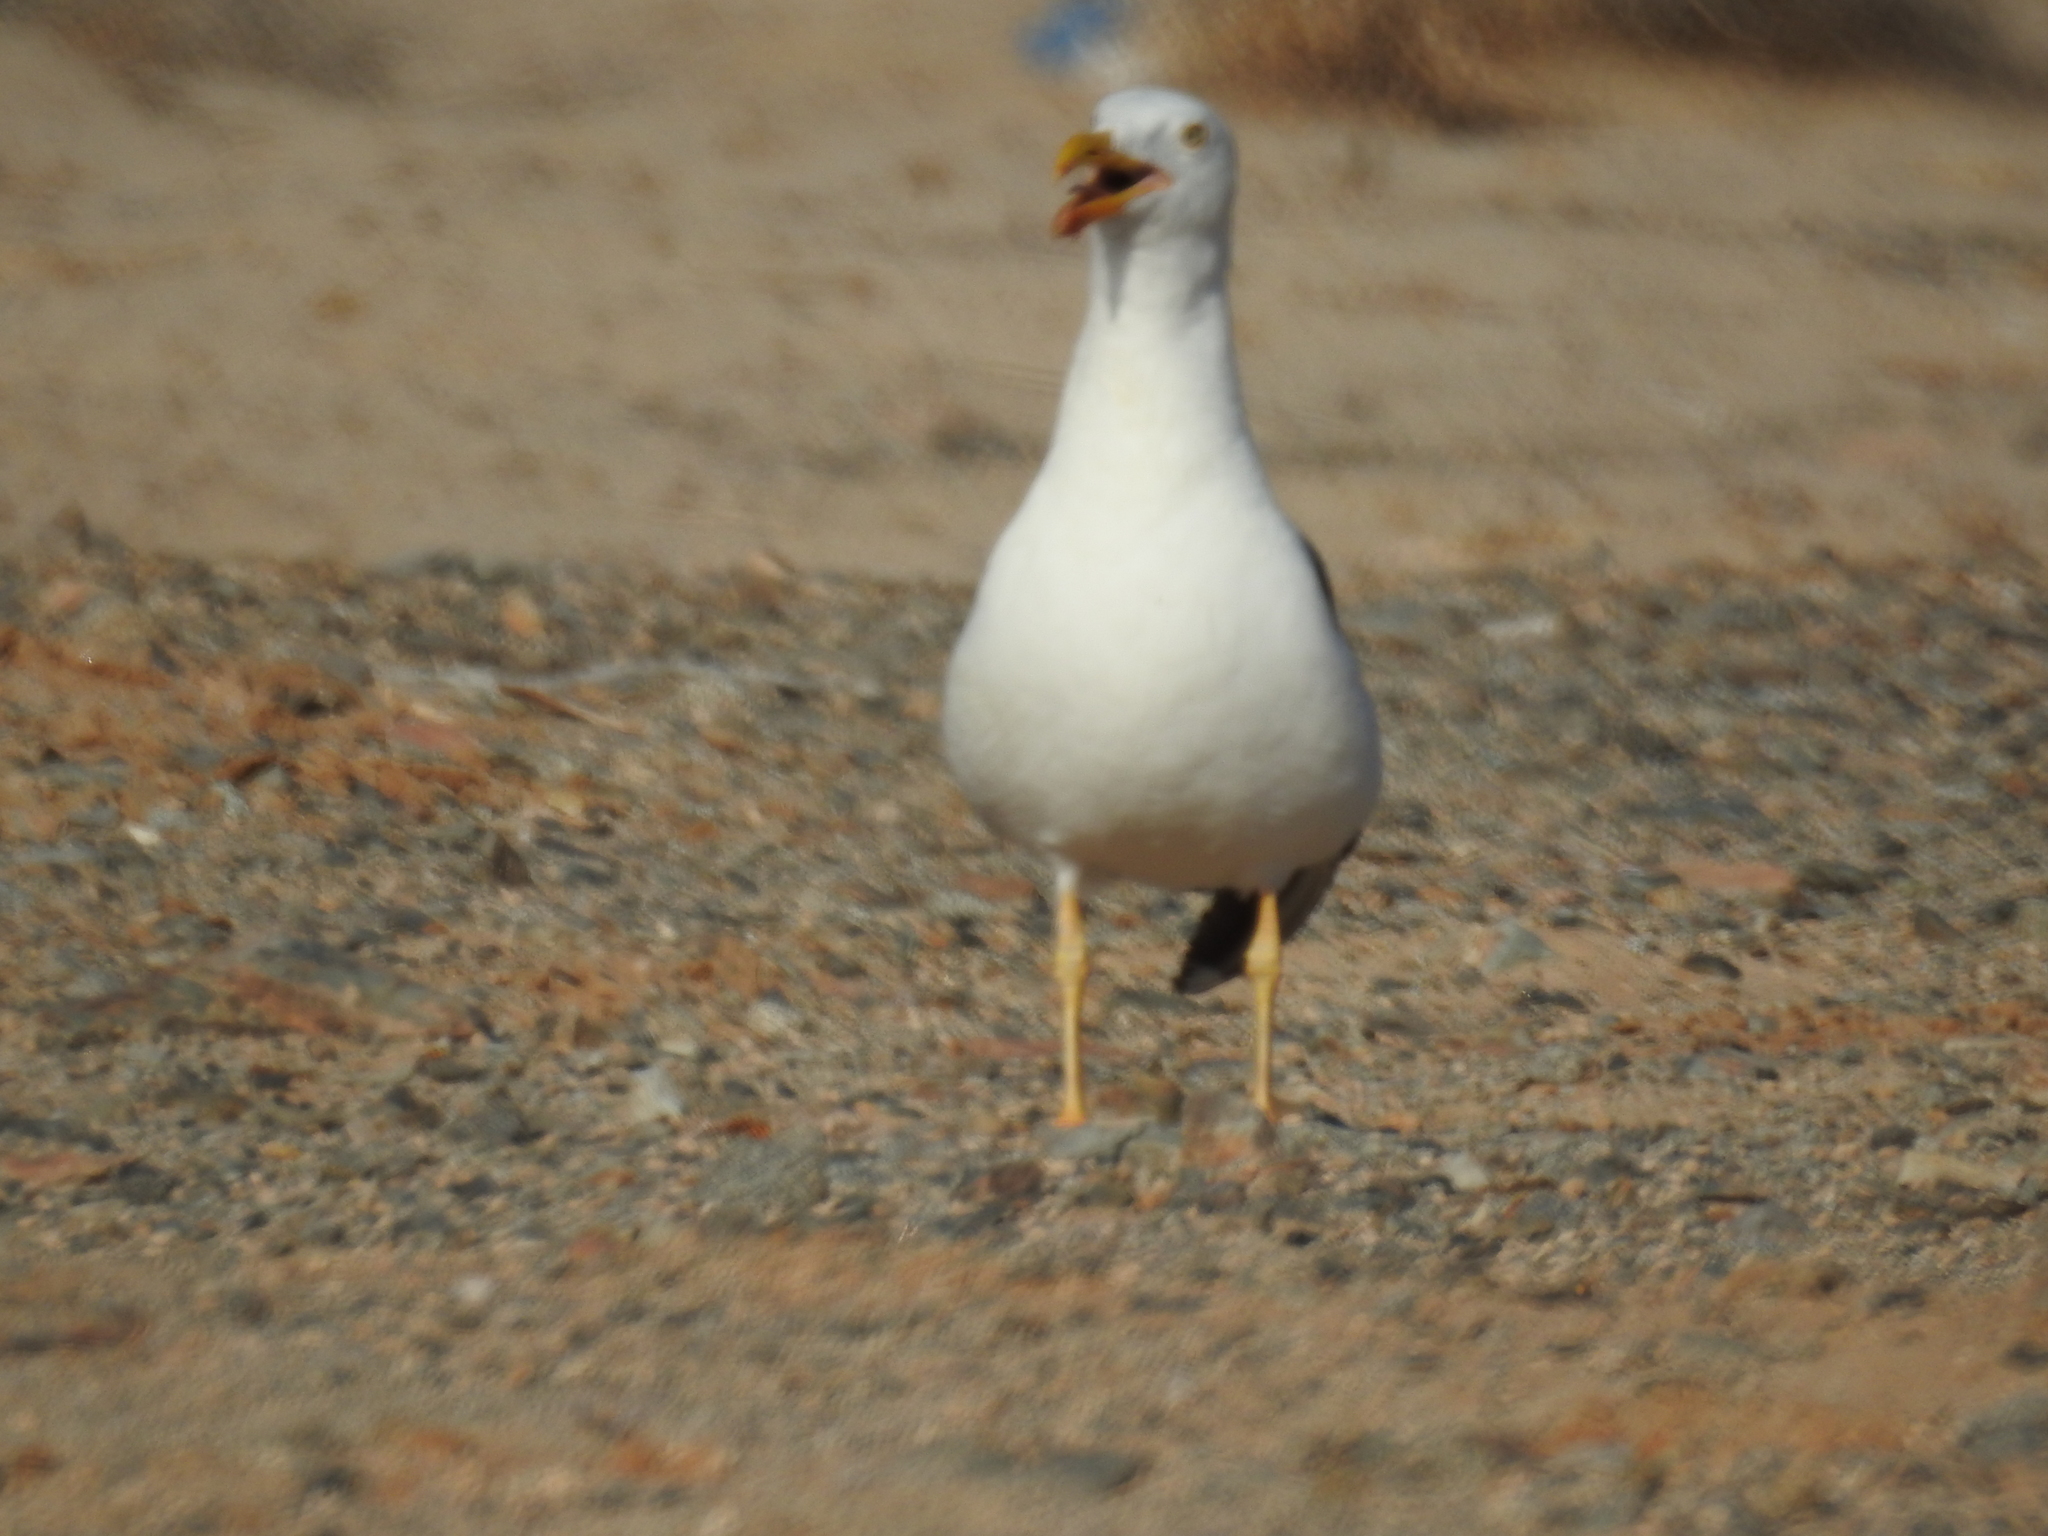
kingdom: Animalia
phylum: Chordata
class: Aves
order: Charadriiformes
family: Laridae
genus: Larus
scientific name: Larus livens
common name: Yellow-footed gull
